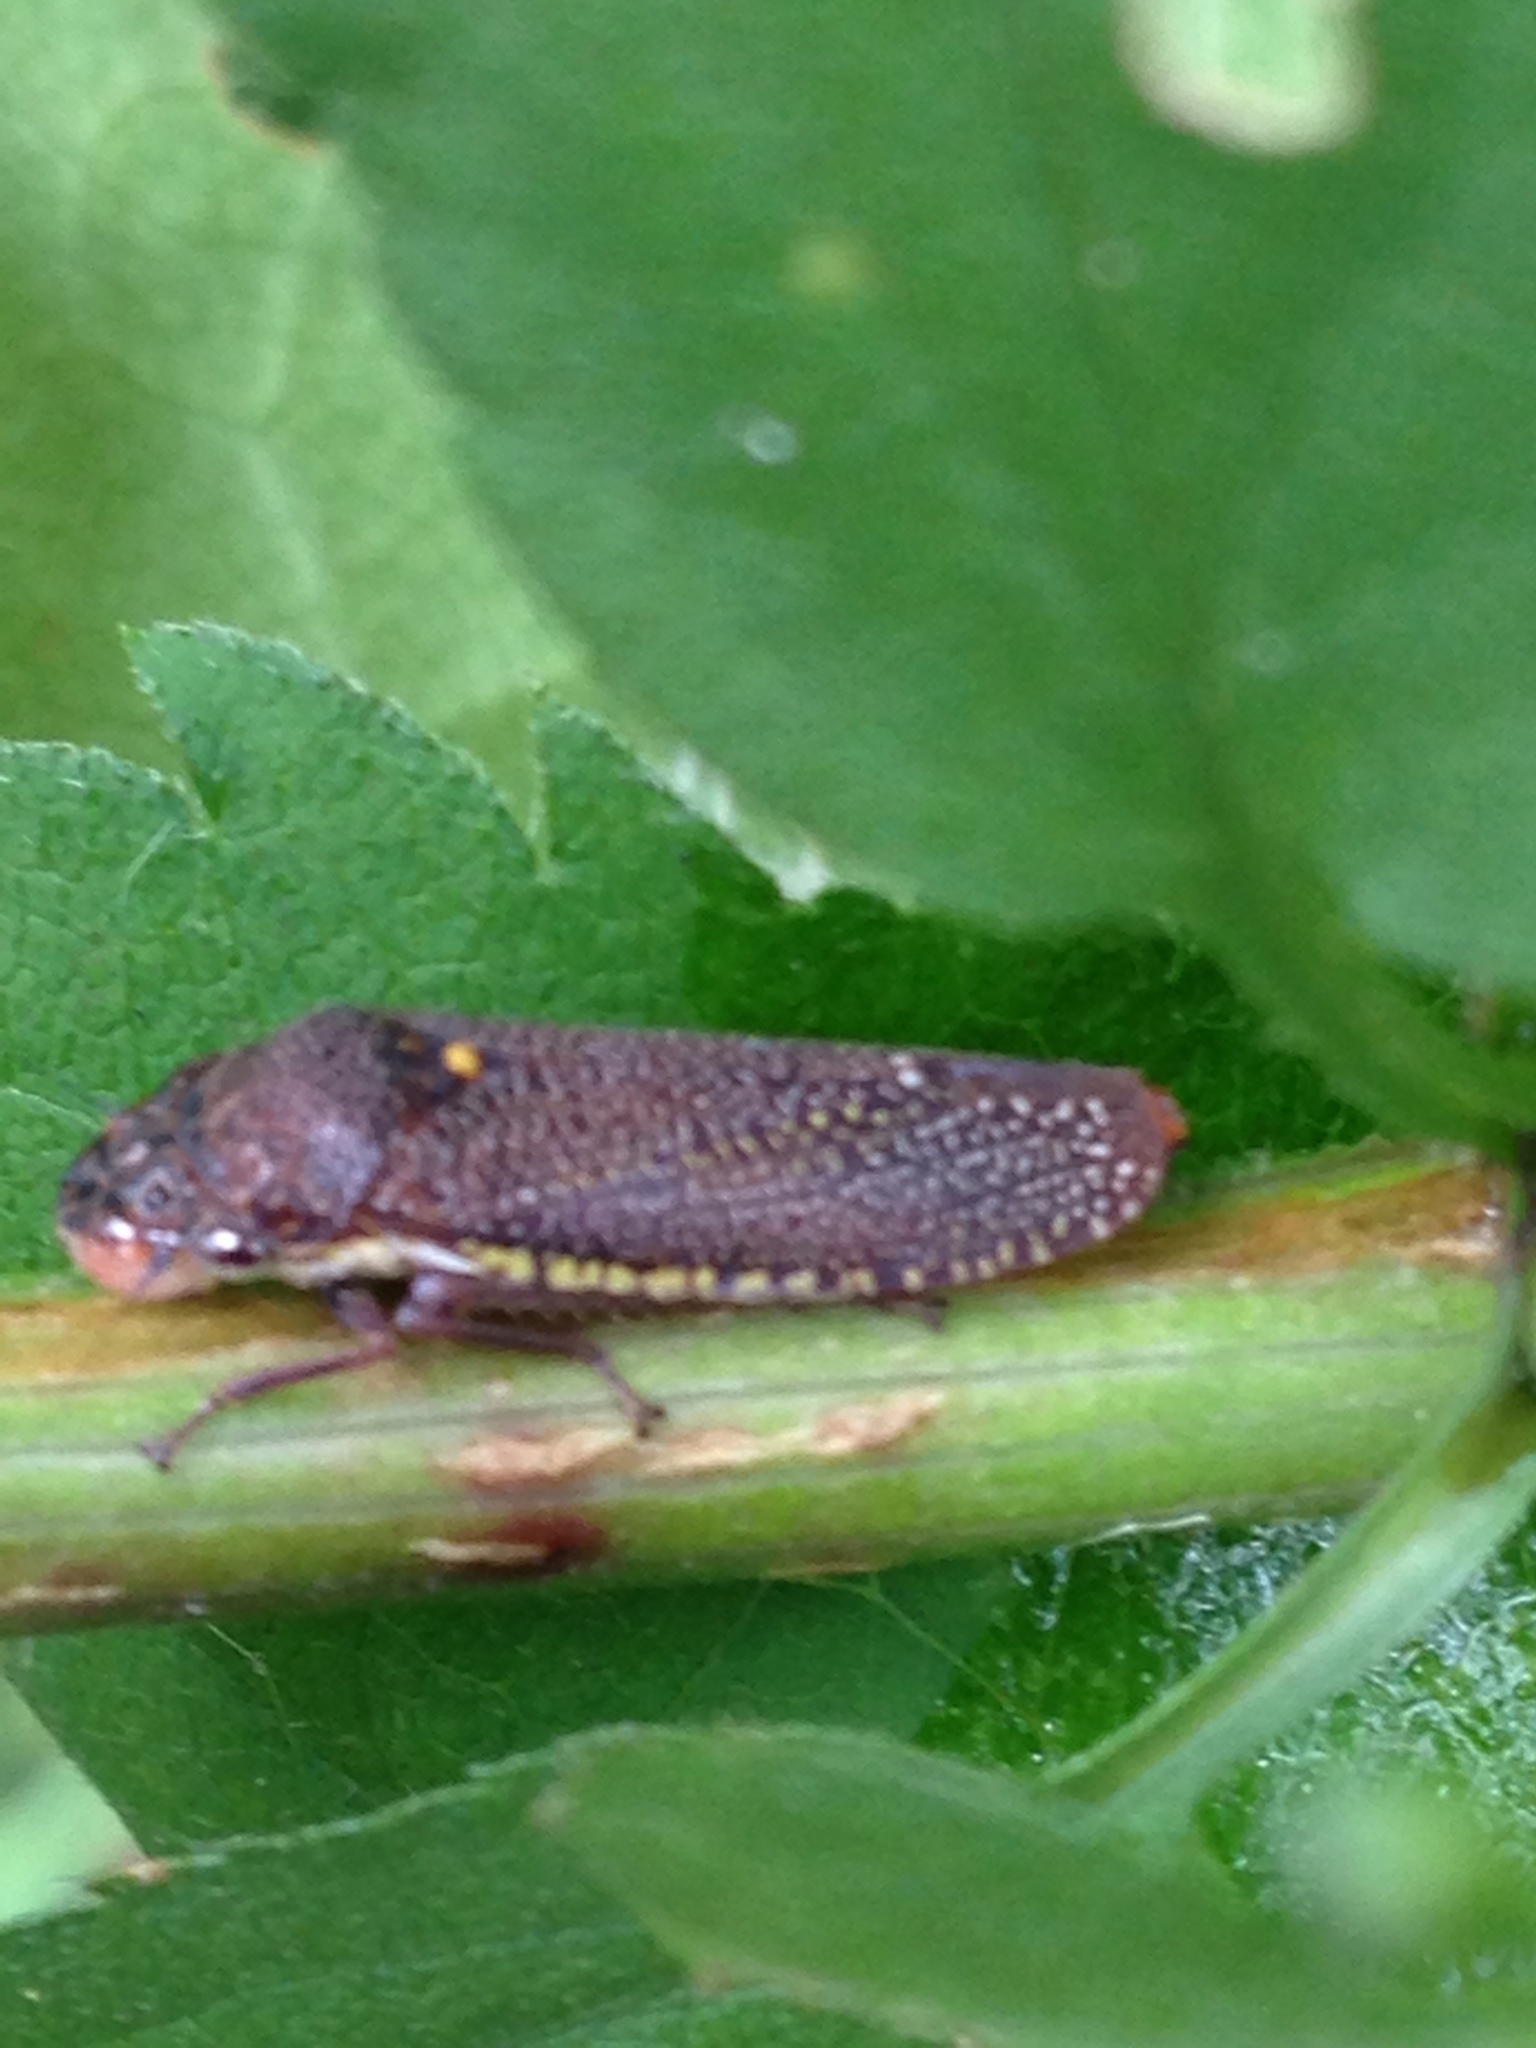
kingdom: Animalia
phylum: Arthropoda
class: Insecta
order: Hemiptera
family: Cicadellidae
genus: Paraulacizes
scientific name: Paraulacizes irrorata
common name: Speckled sharpshooter
